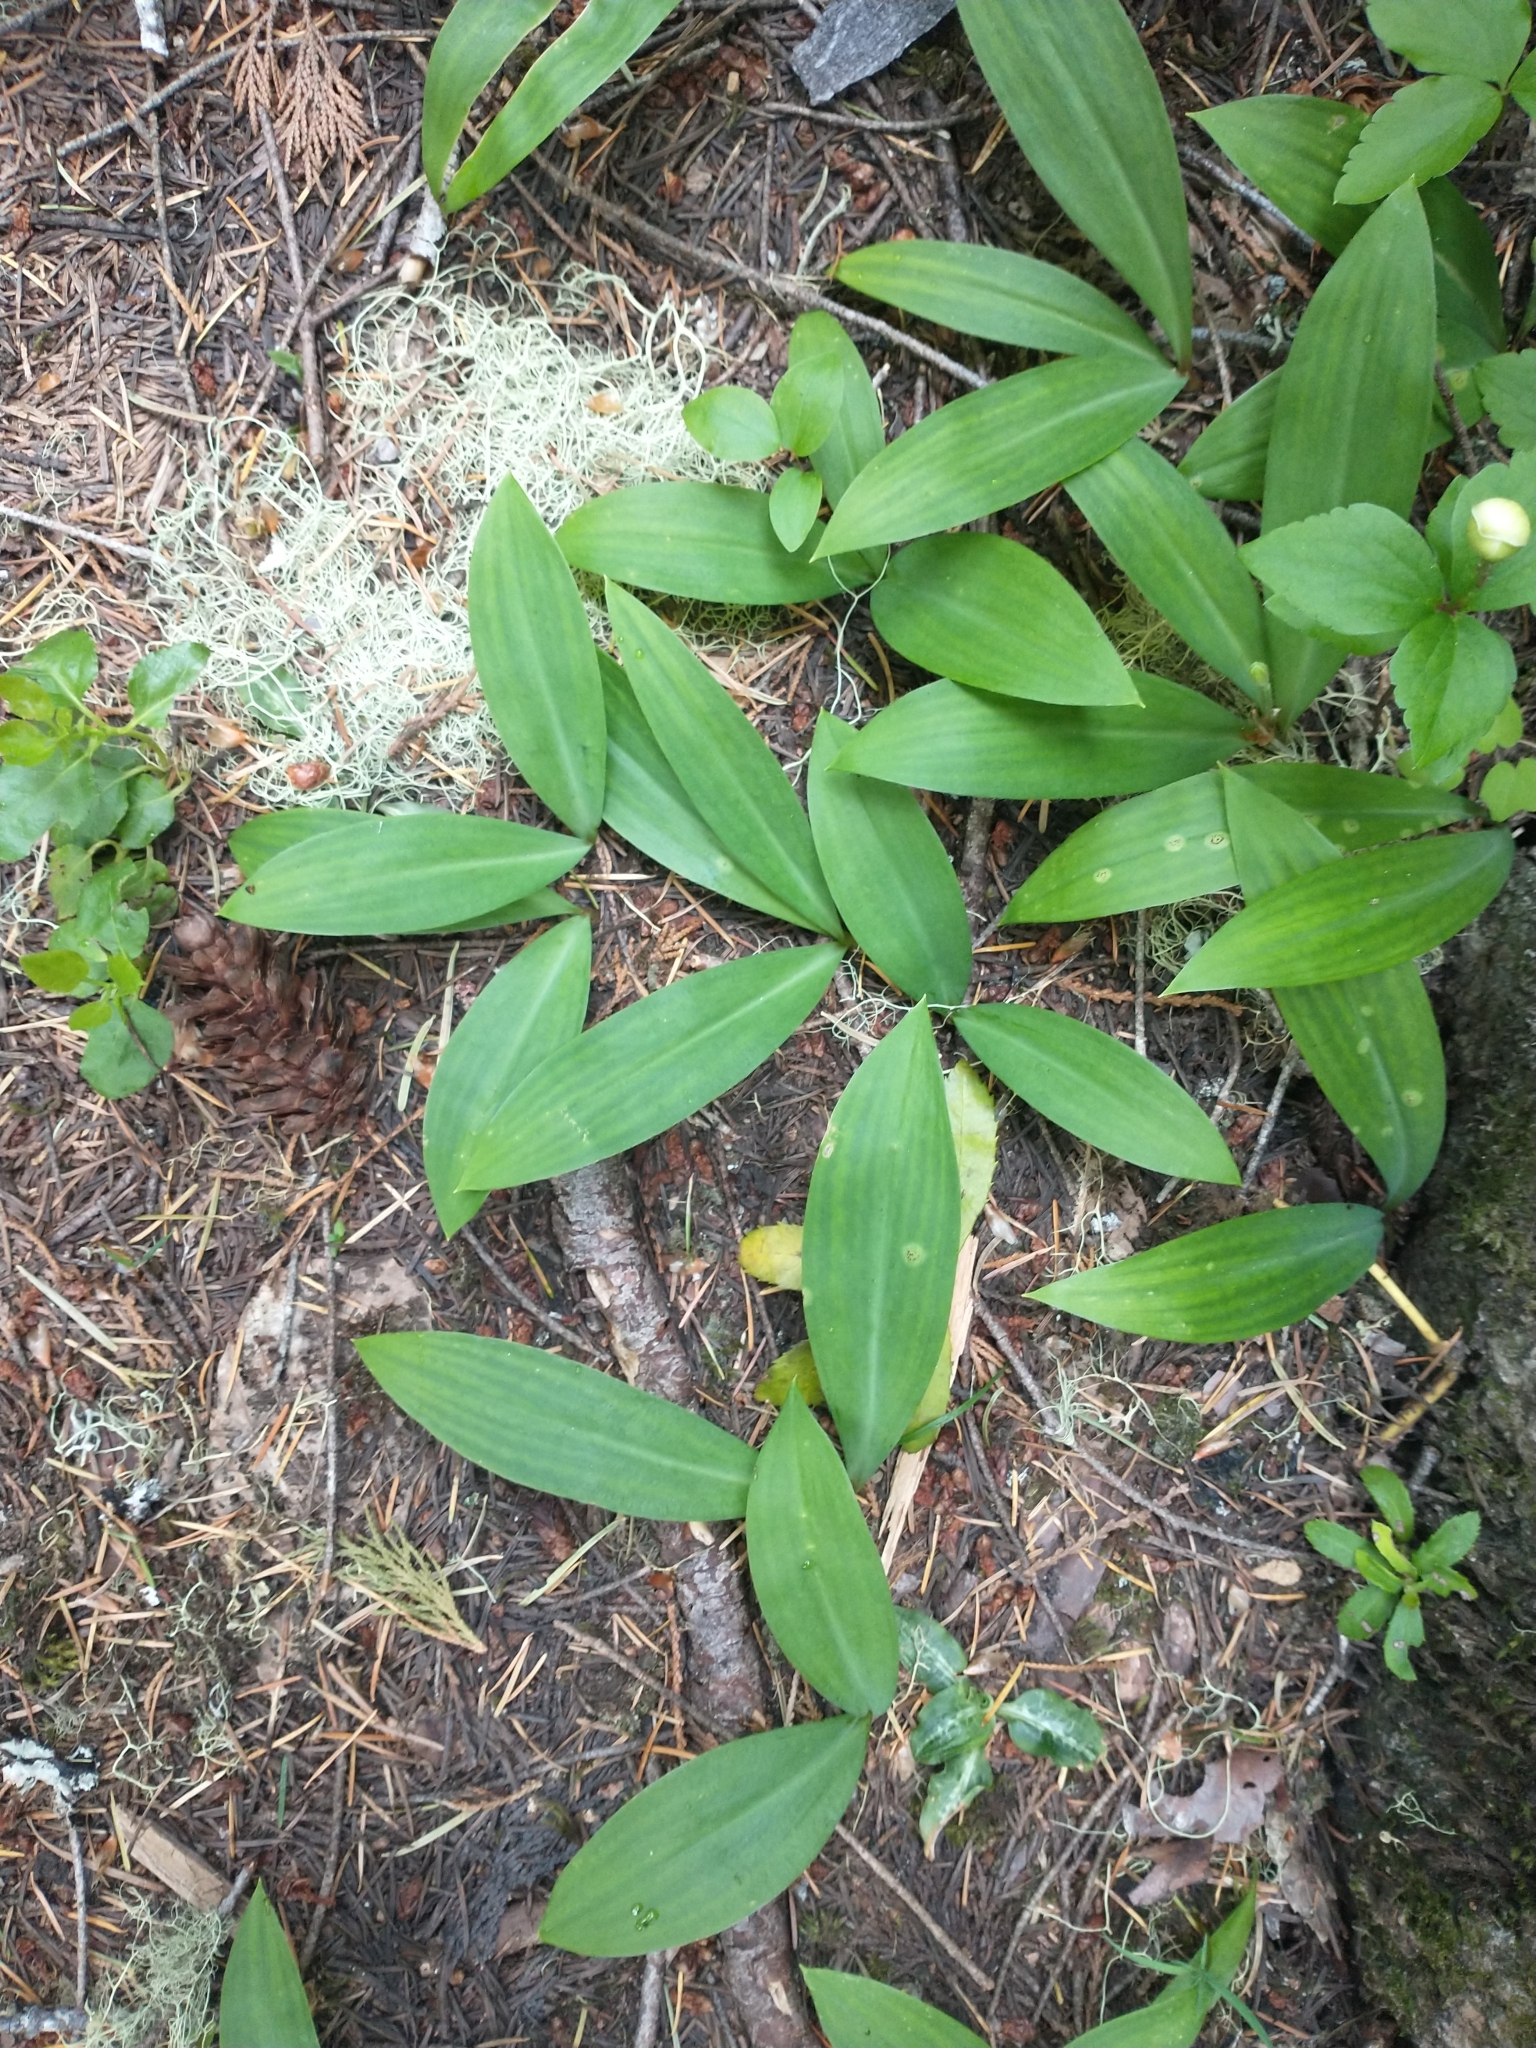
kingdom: Plantae
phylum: Tracheophyta
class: Liliopsida
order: Liliales
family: Liliaceae
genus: Clintonia
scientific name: Clintonia uniflora
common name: Queen's cup
